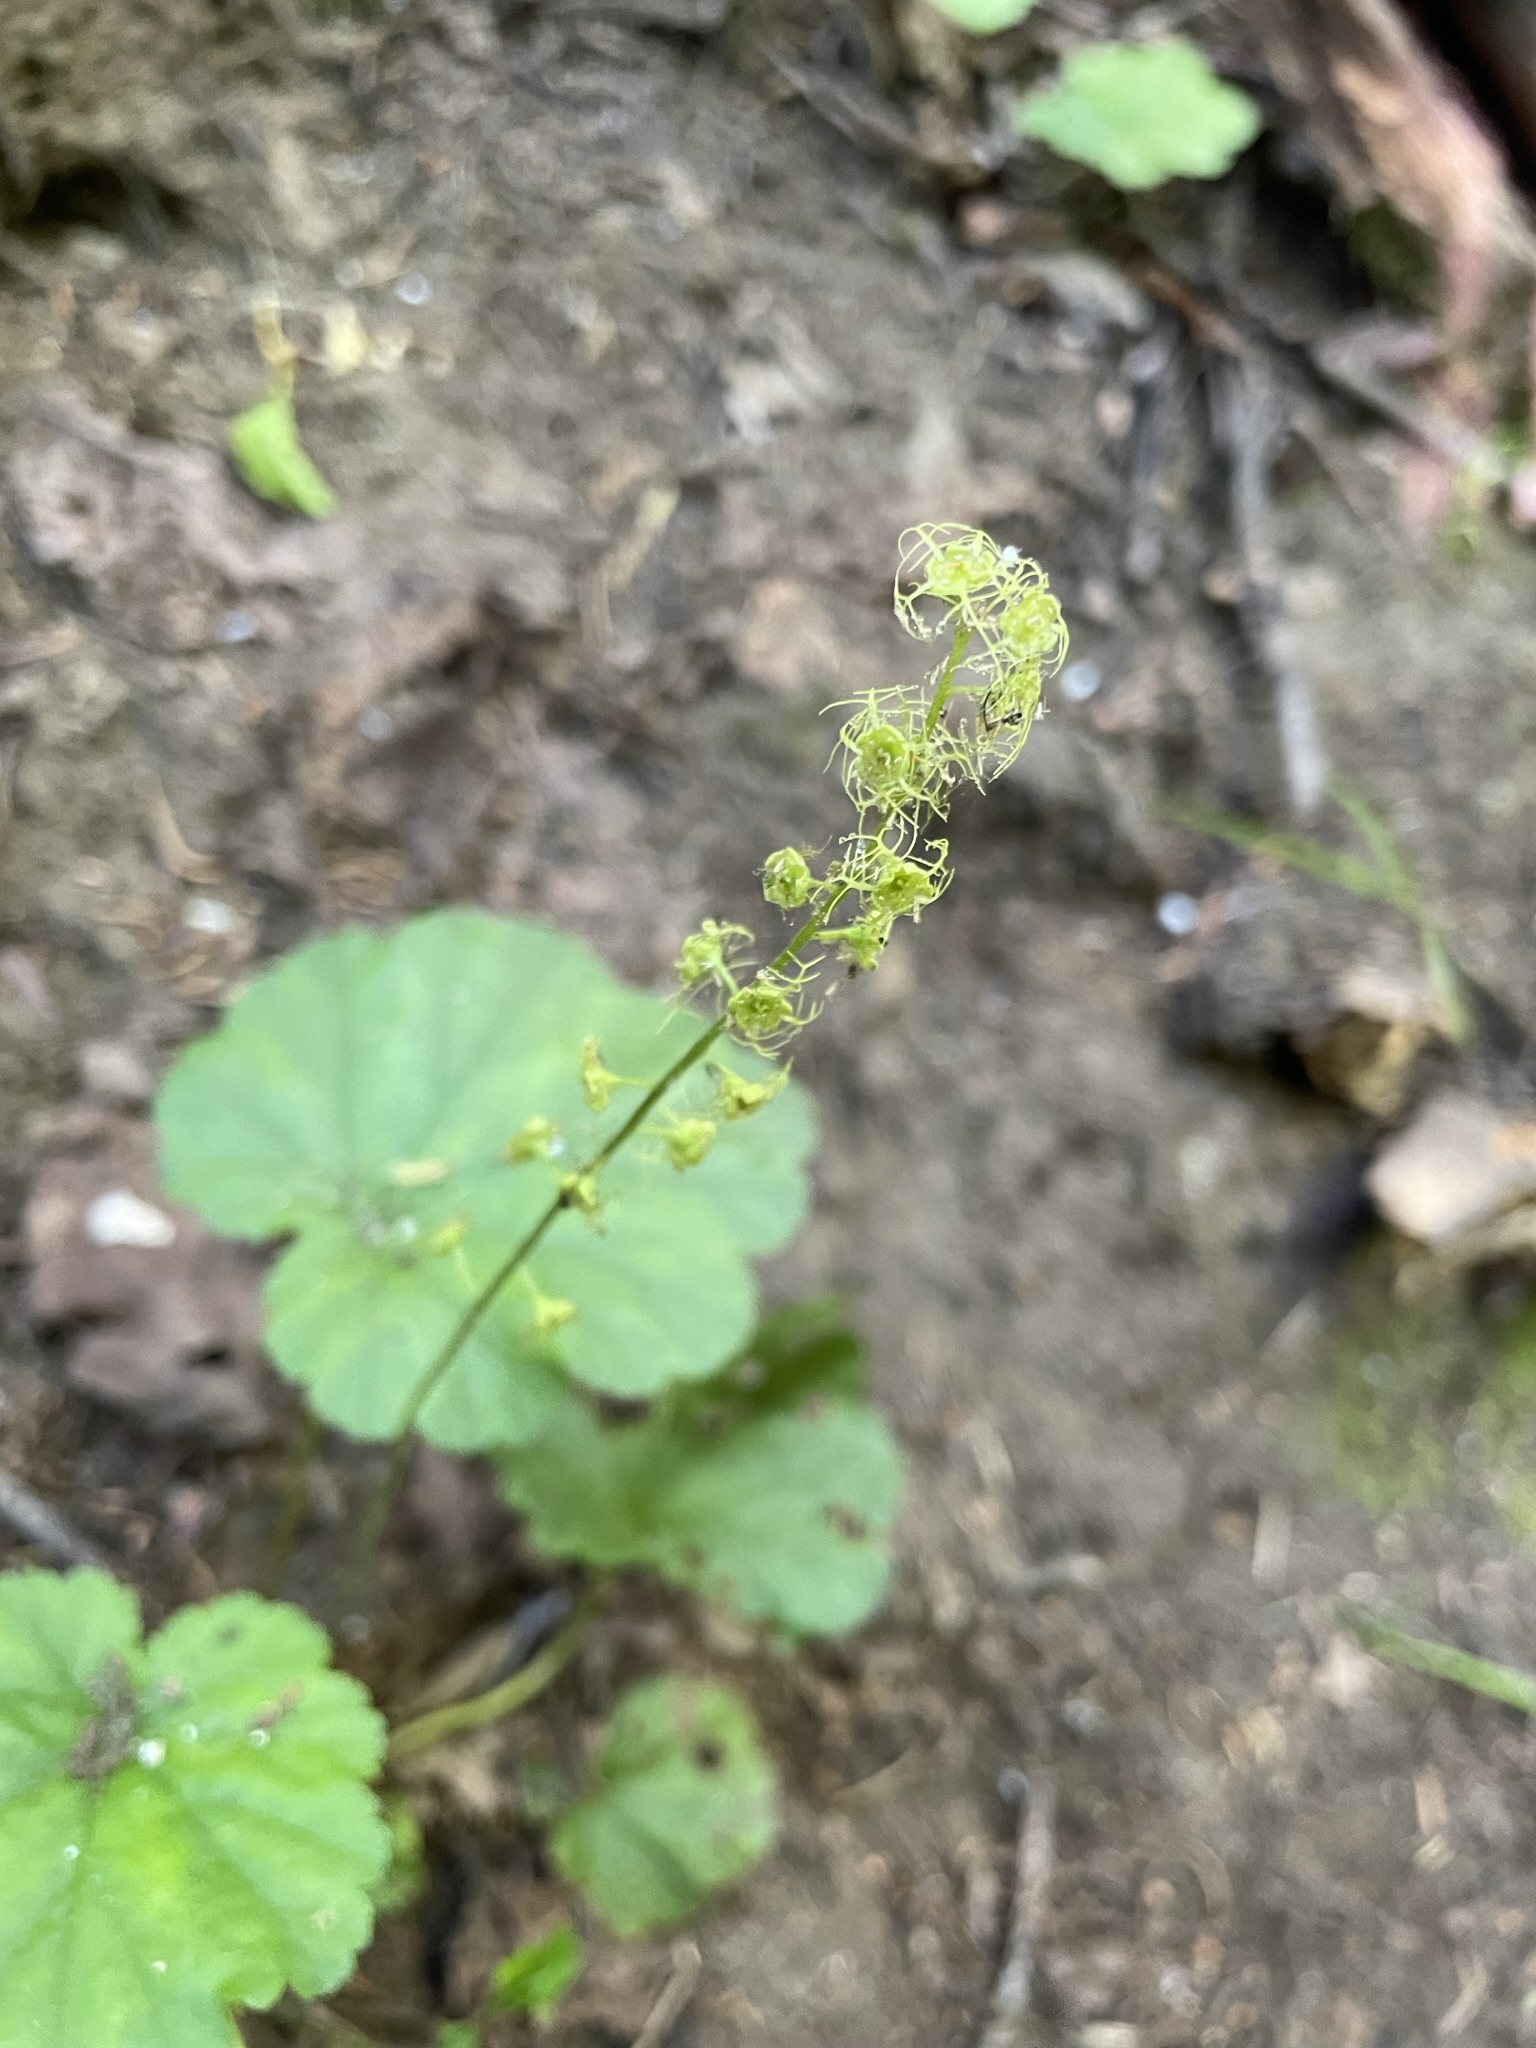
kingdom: Plantae
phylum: Tracheophyta
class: Magnoliopsida
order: Saxifragales
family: Saxifragaceae
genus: Brewerimitella
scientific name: Brewerimitella breweri
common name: Brewer's bishop's-cap
